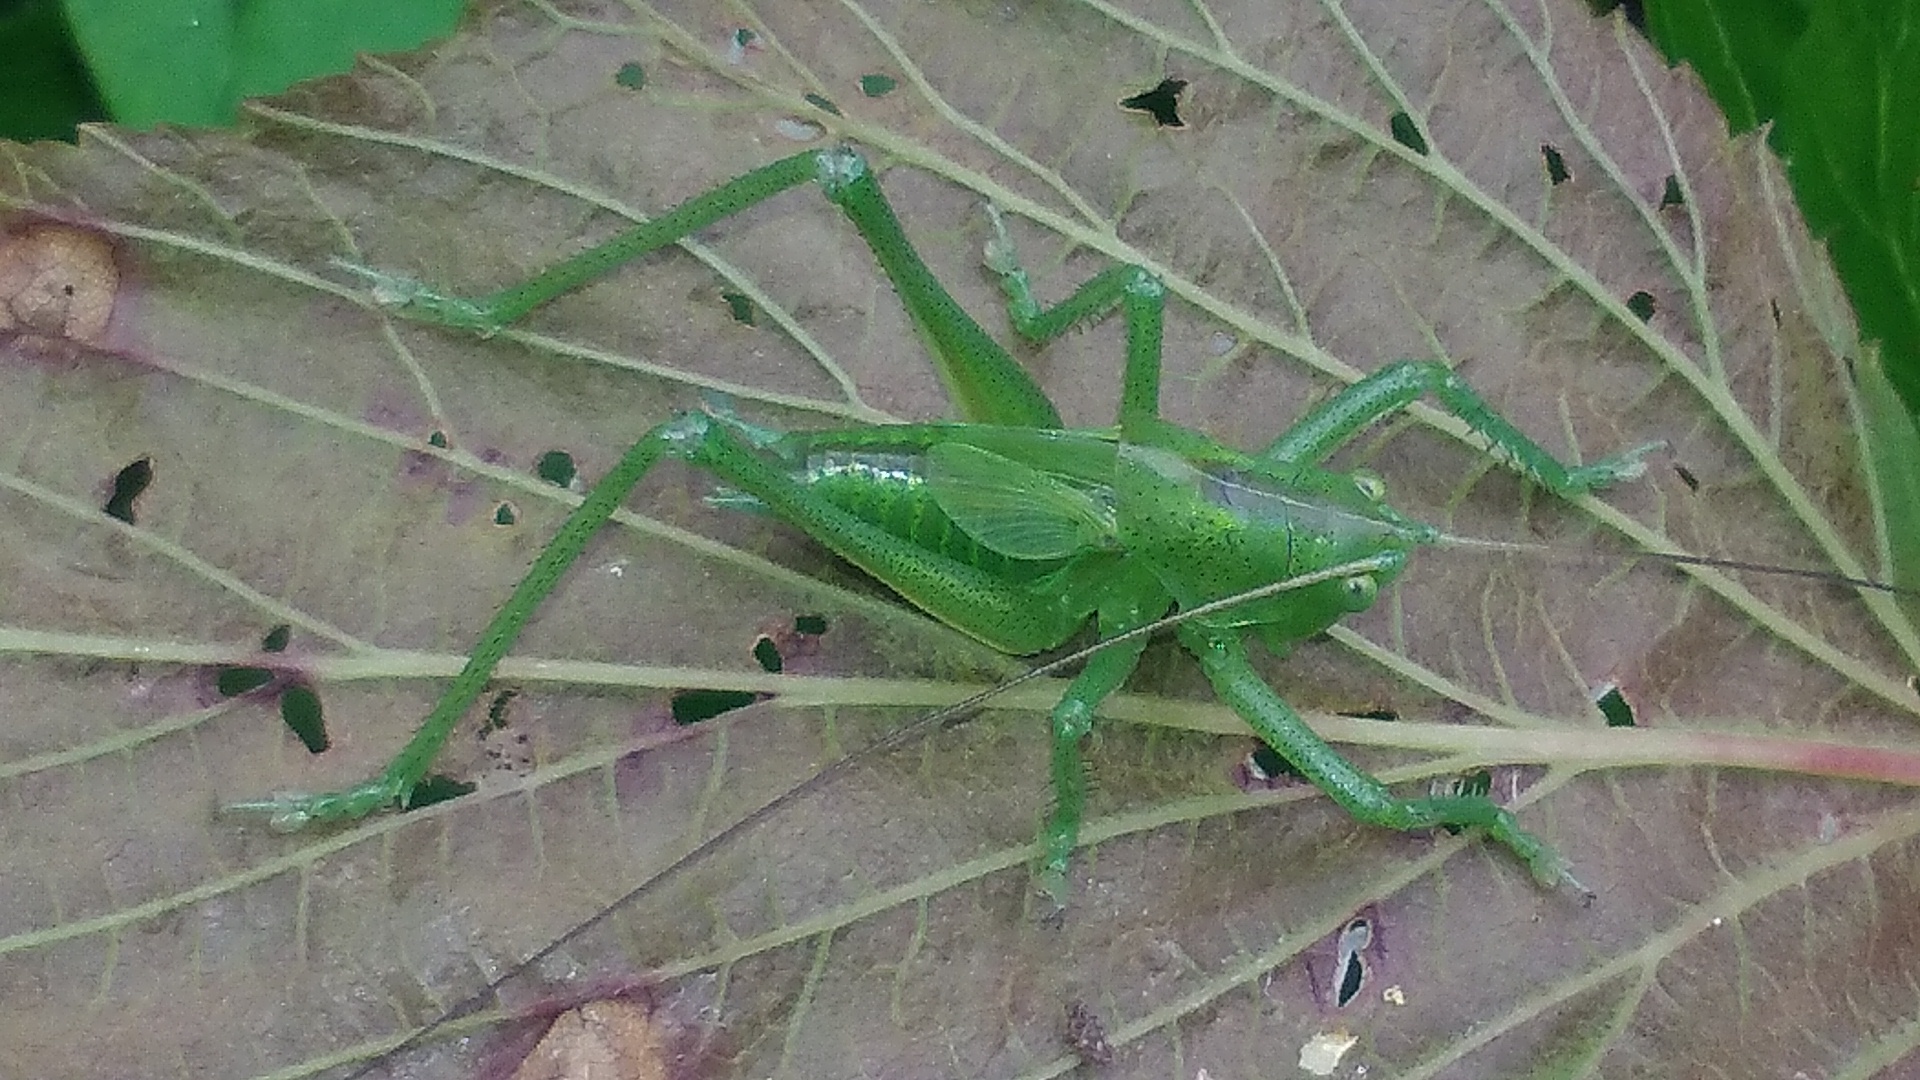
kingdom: Animalia
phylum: Arthropoda
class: Insecta
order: Orthoptera
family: Tettigoniidae
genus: Tettigonia
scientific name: Tettigonia cantans
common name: Upland green bush-cricket
